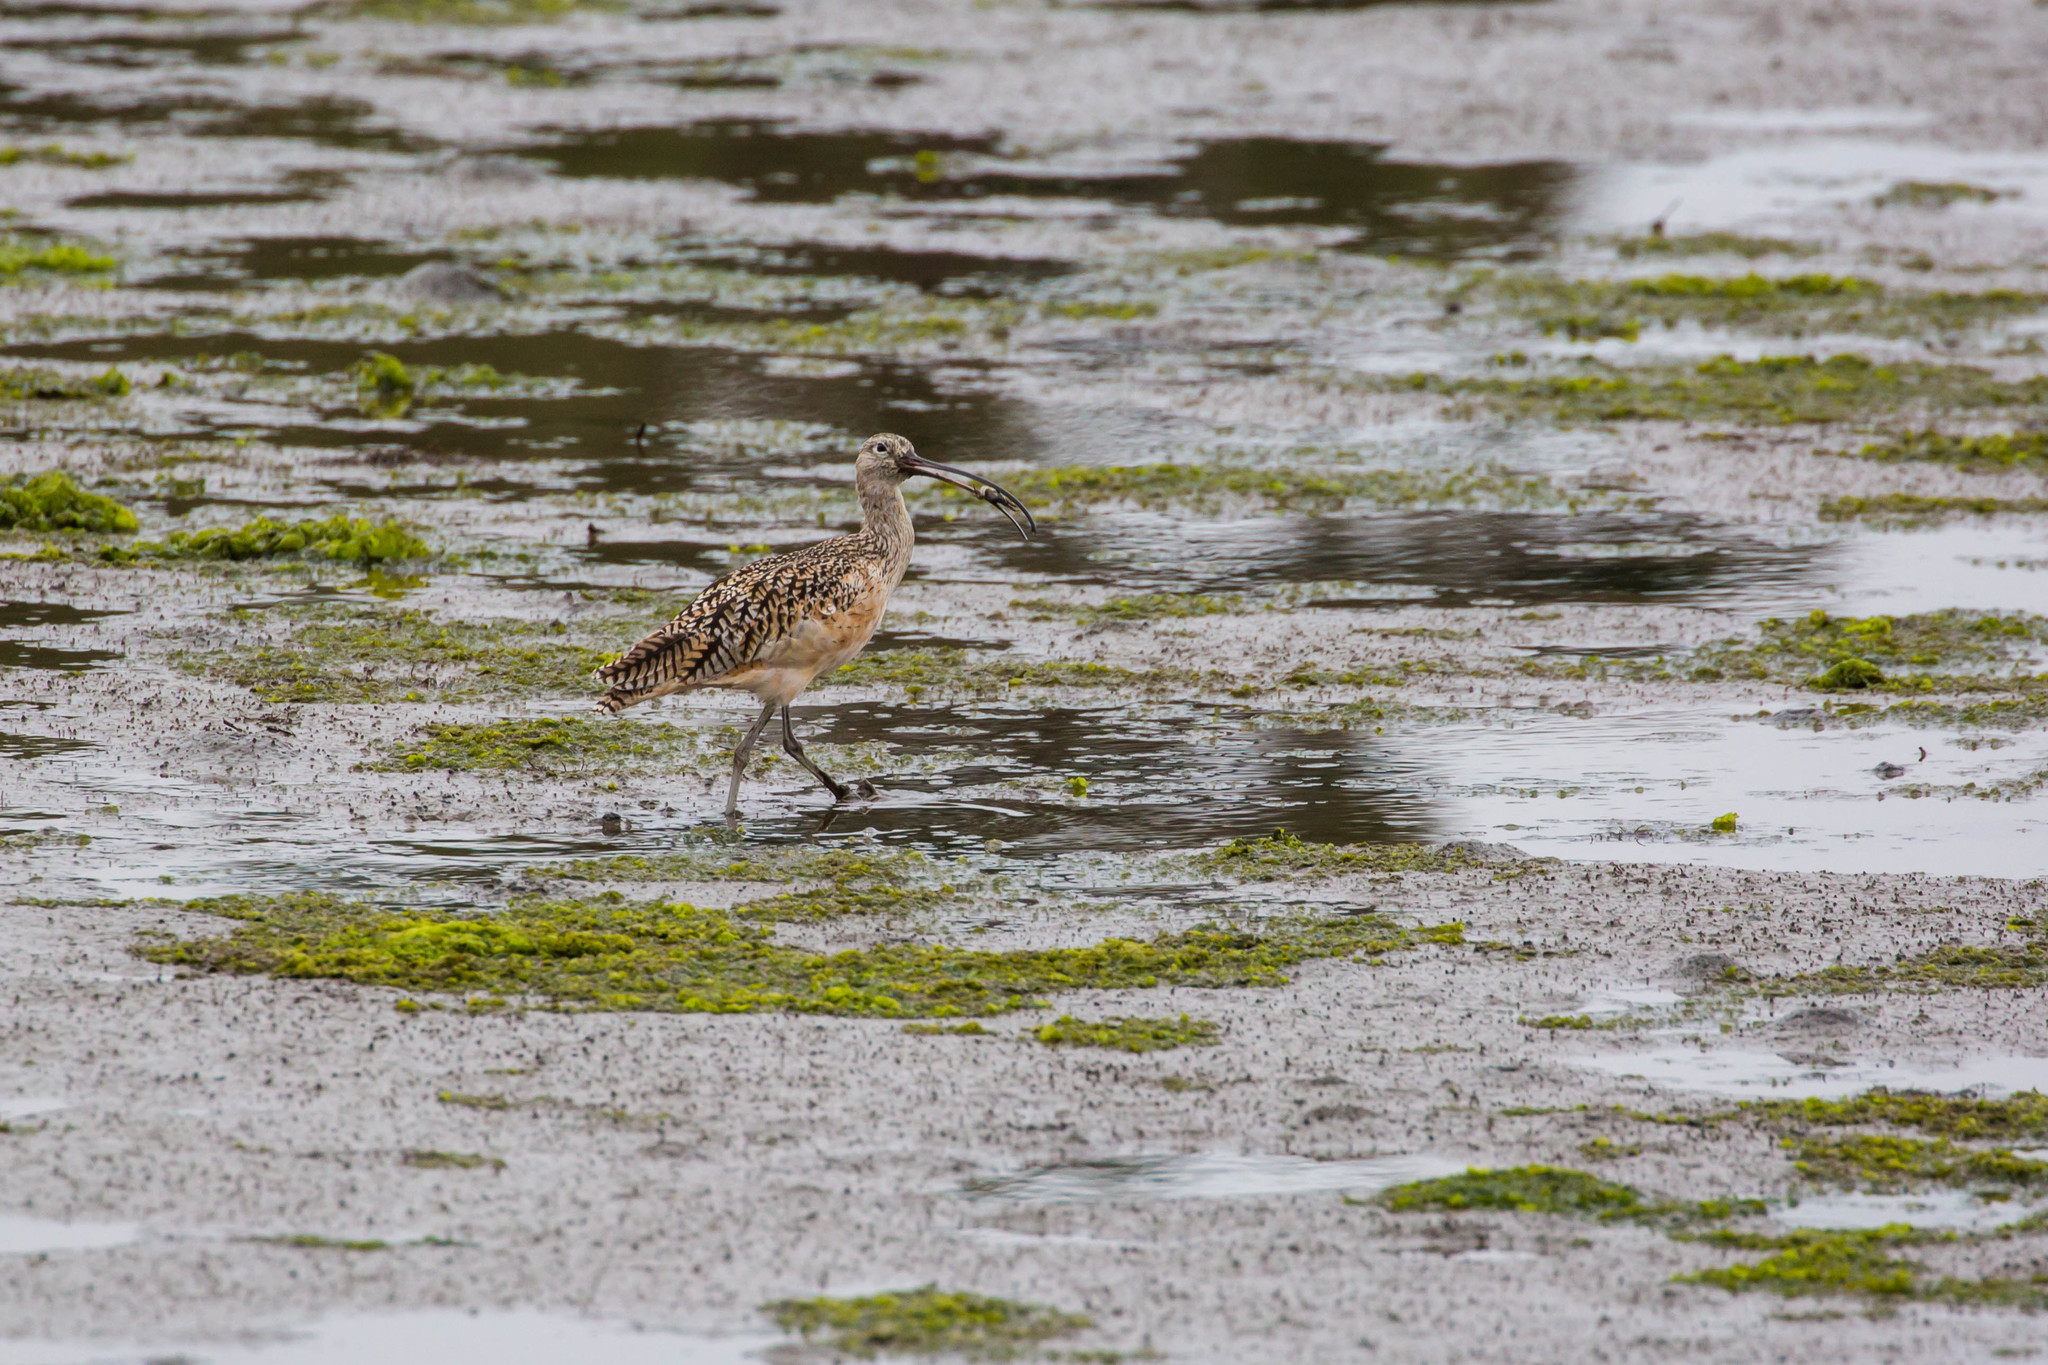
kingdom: Animalia
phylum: Chordata
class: Aves
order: Charadriiformes
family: Scolopacidae
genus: Numenius
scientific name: Numenius americanus
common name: Long-billed curlew
